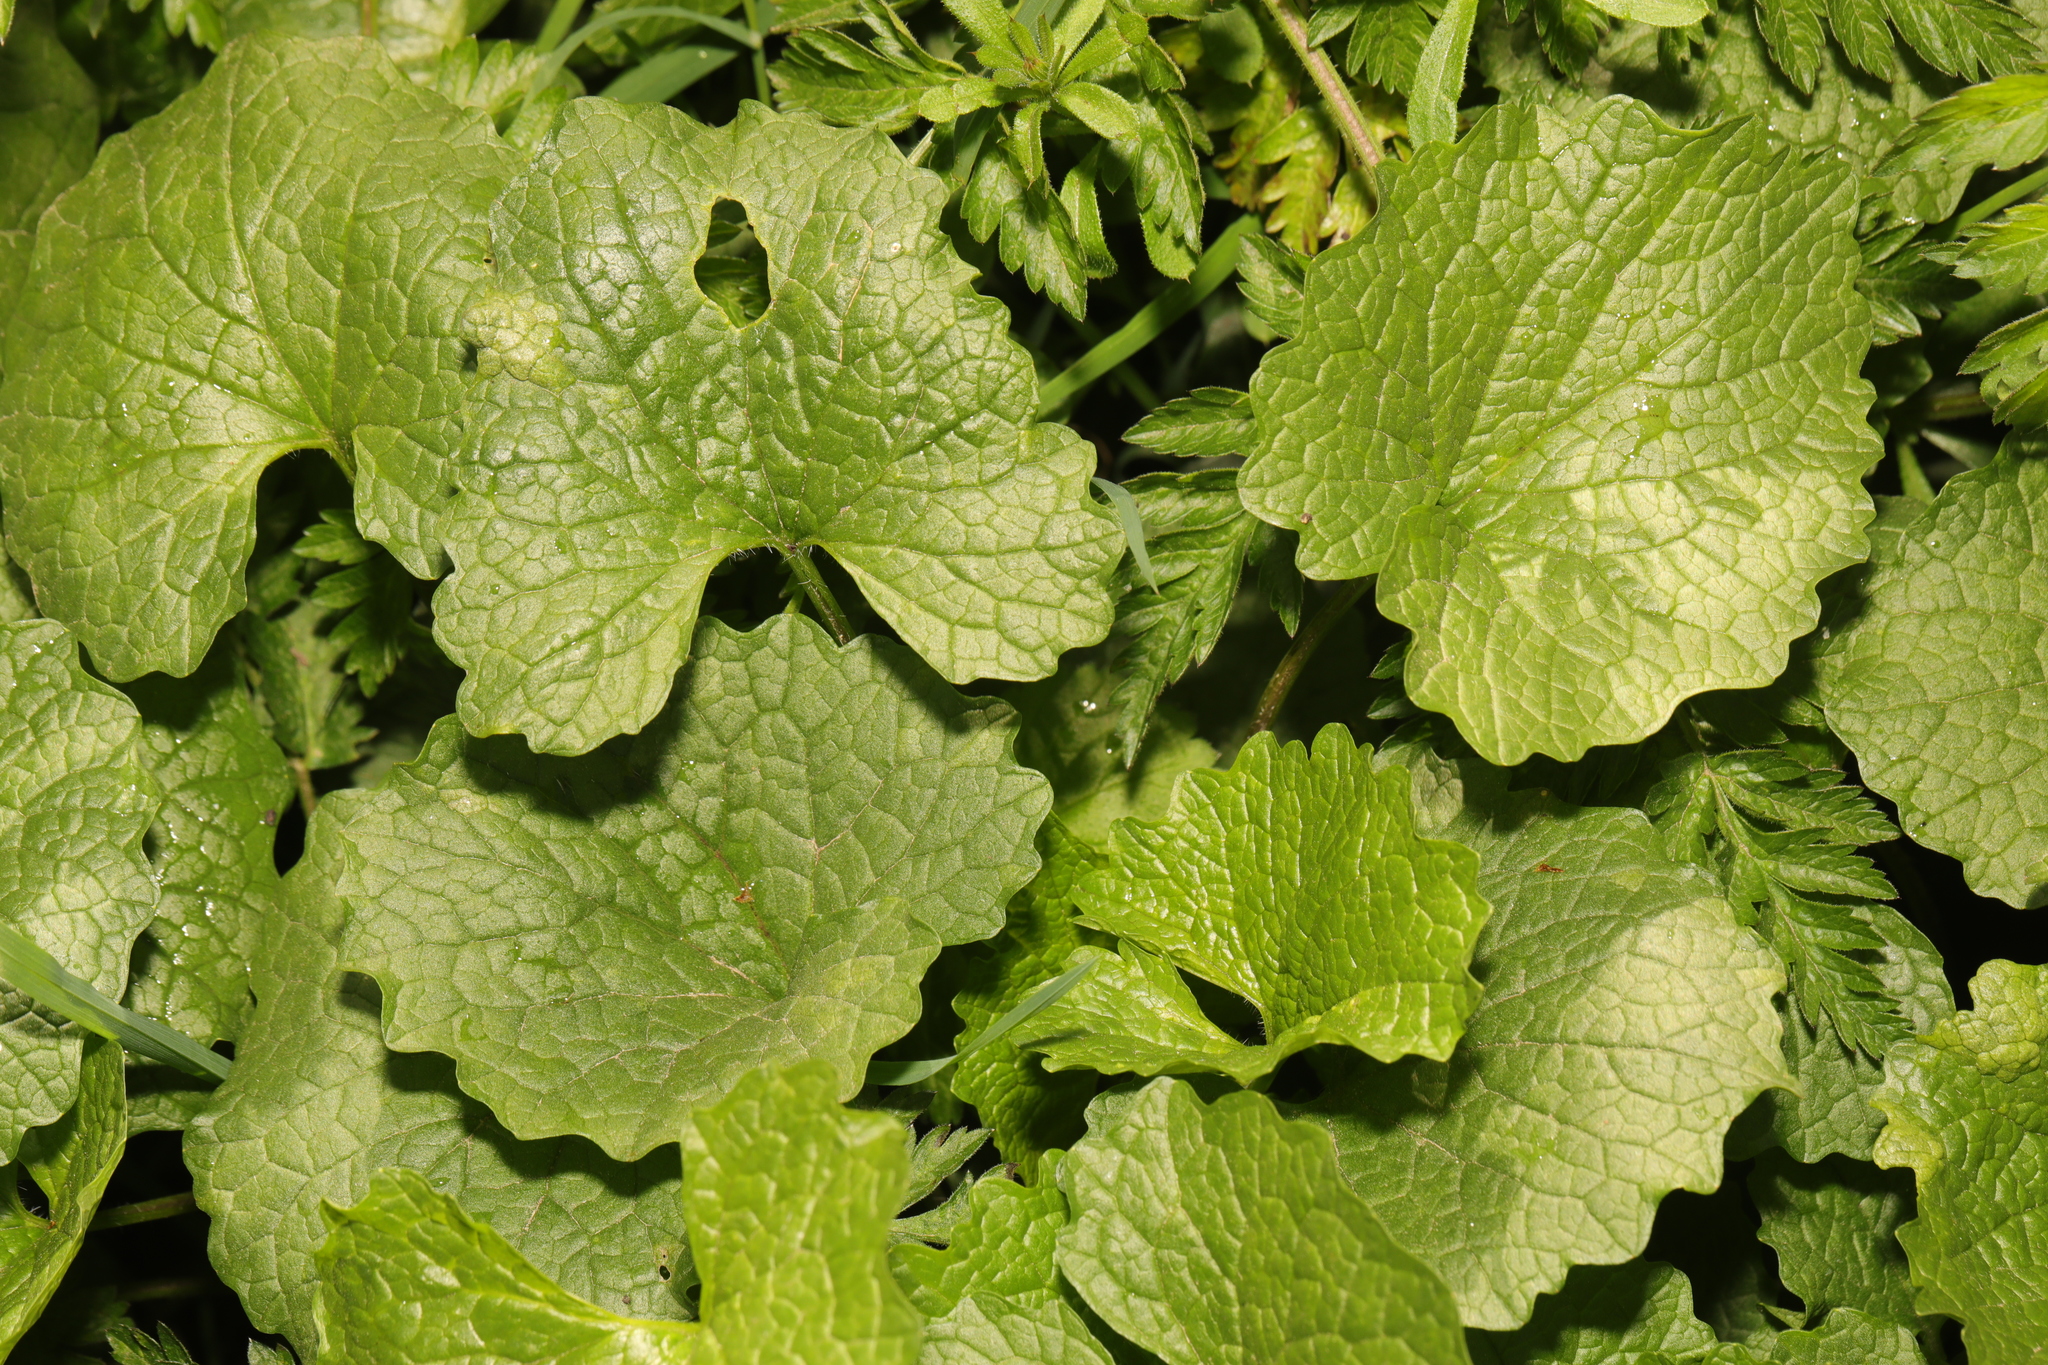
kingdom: Plantae
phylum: Tracheophyta
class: Magnoliopsida
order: Brassicales
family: Brassicaceae
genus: Alliaria
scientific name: Alliaria petiolata
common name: Garlic mustard
